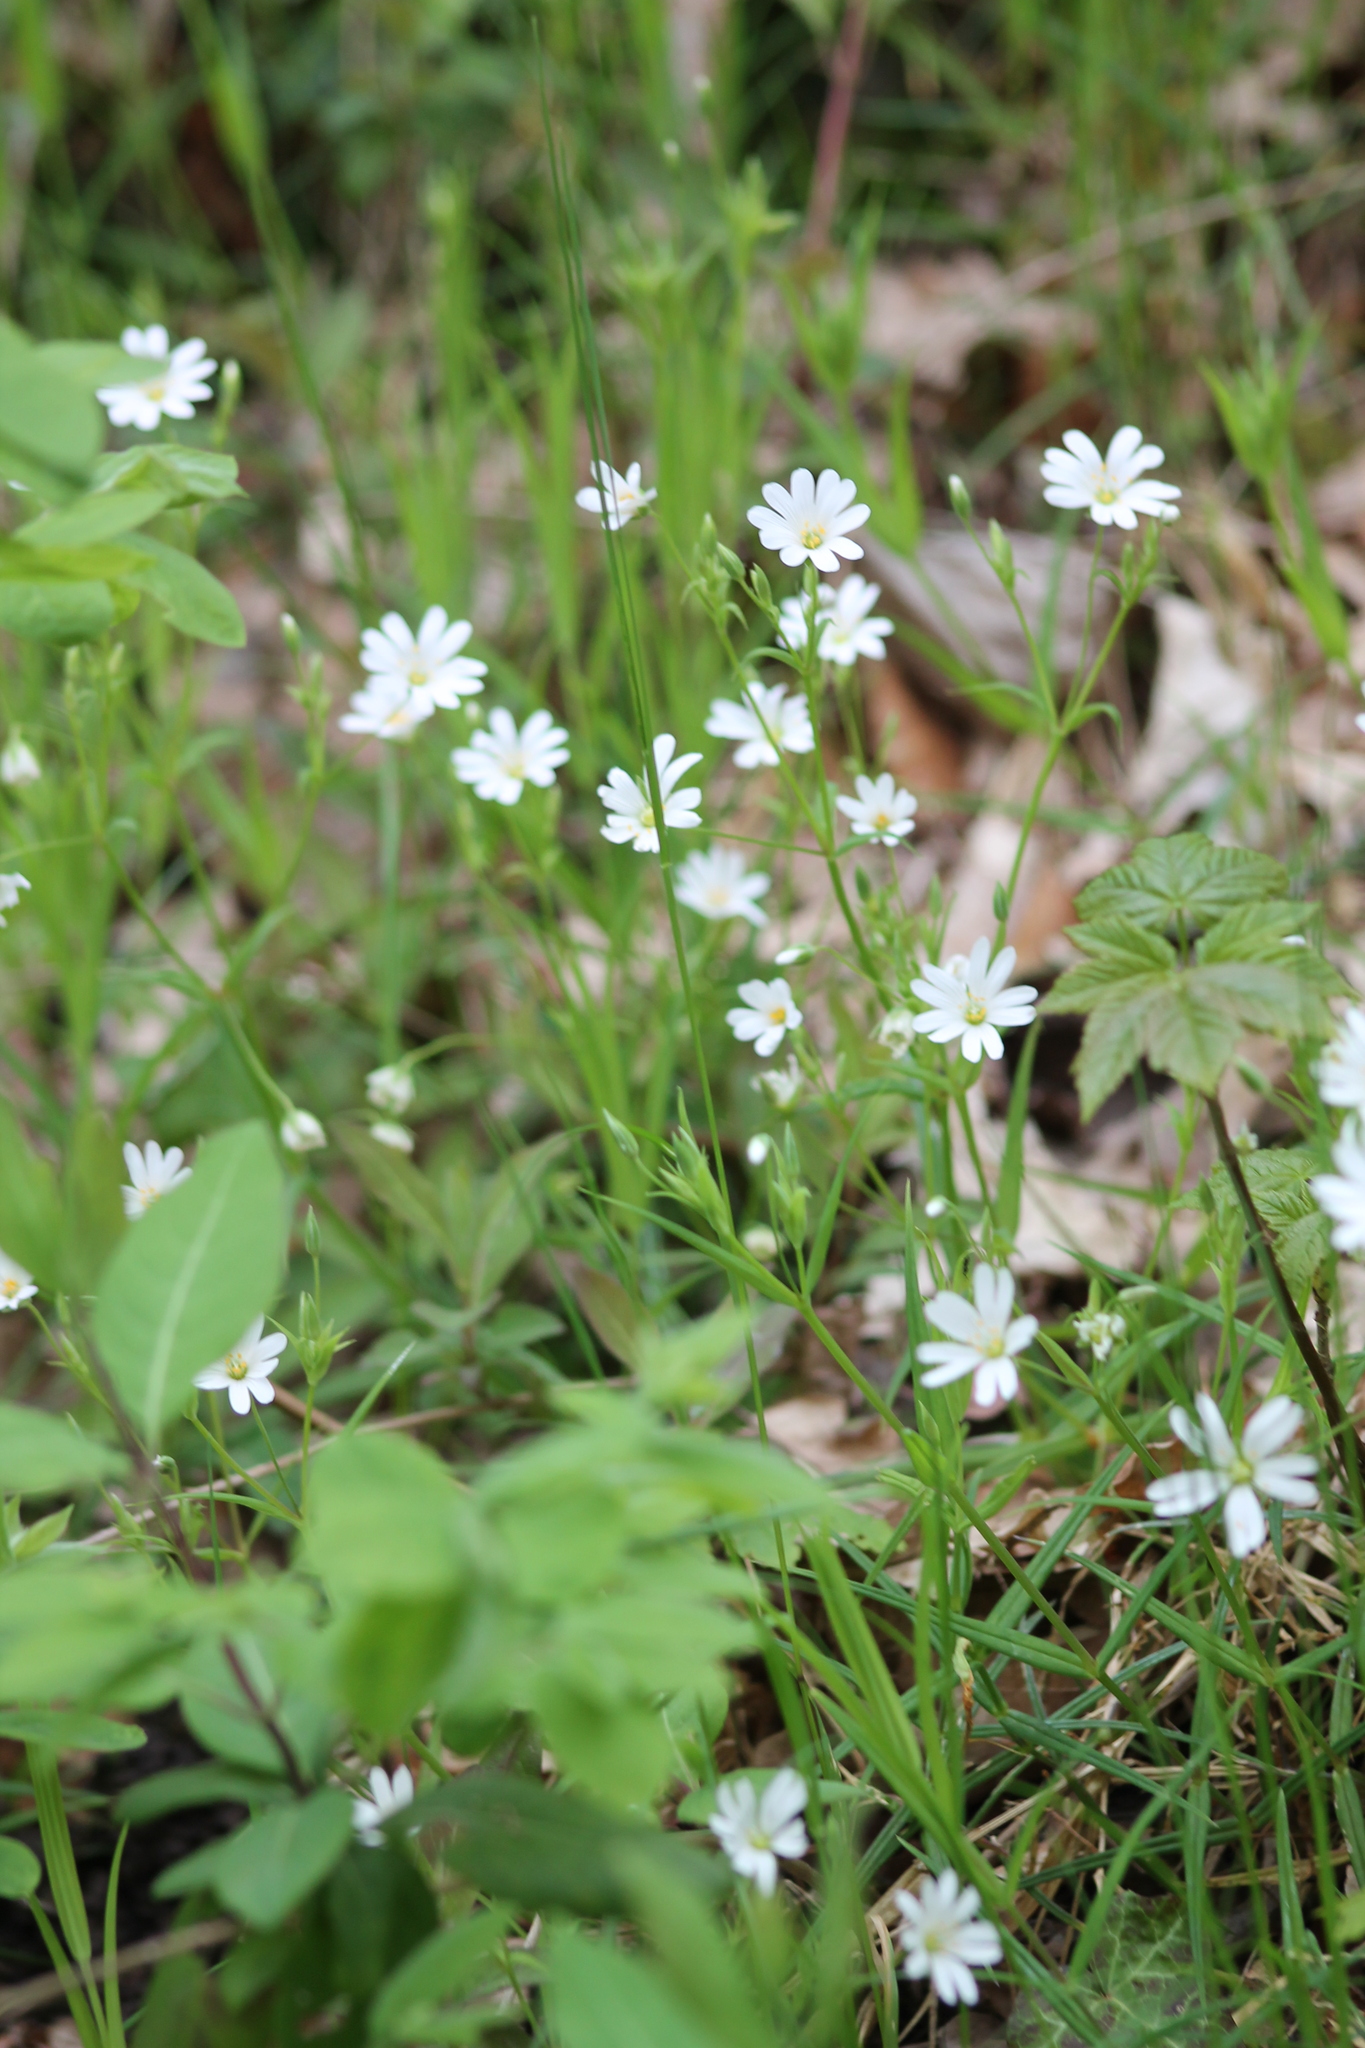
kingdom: Plantae
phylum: Tracheophyta
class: Magnoliopsida
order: Caryophyllales
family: Caryophyllaceae
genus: Rabelera
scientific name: Rabelera holostea
